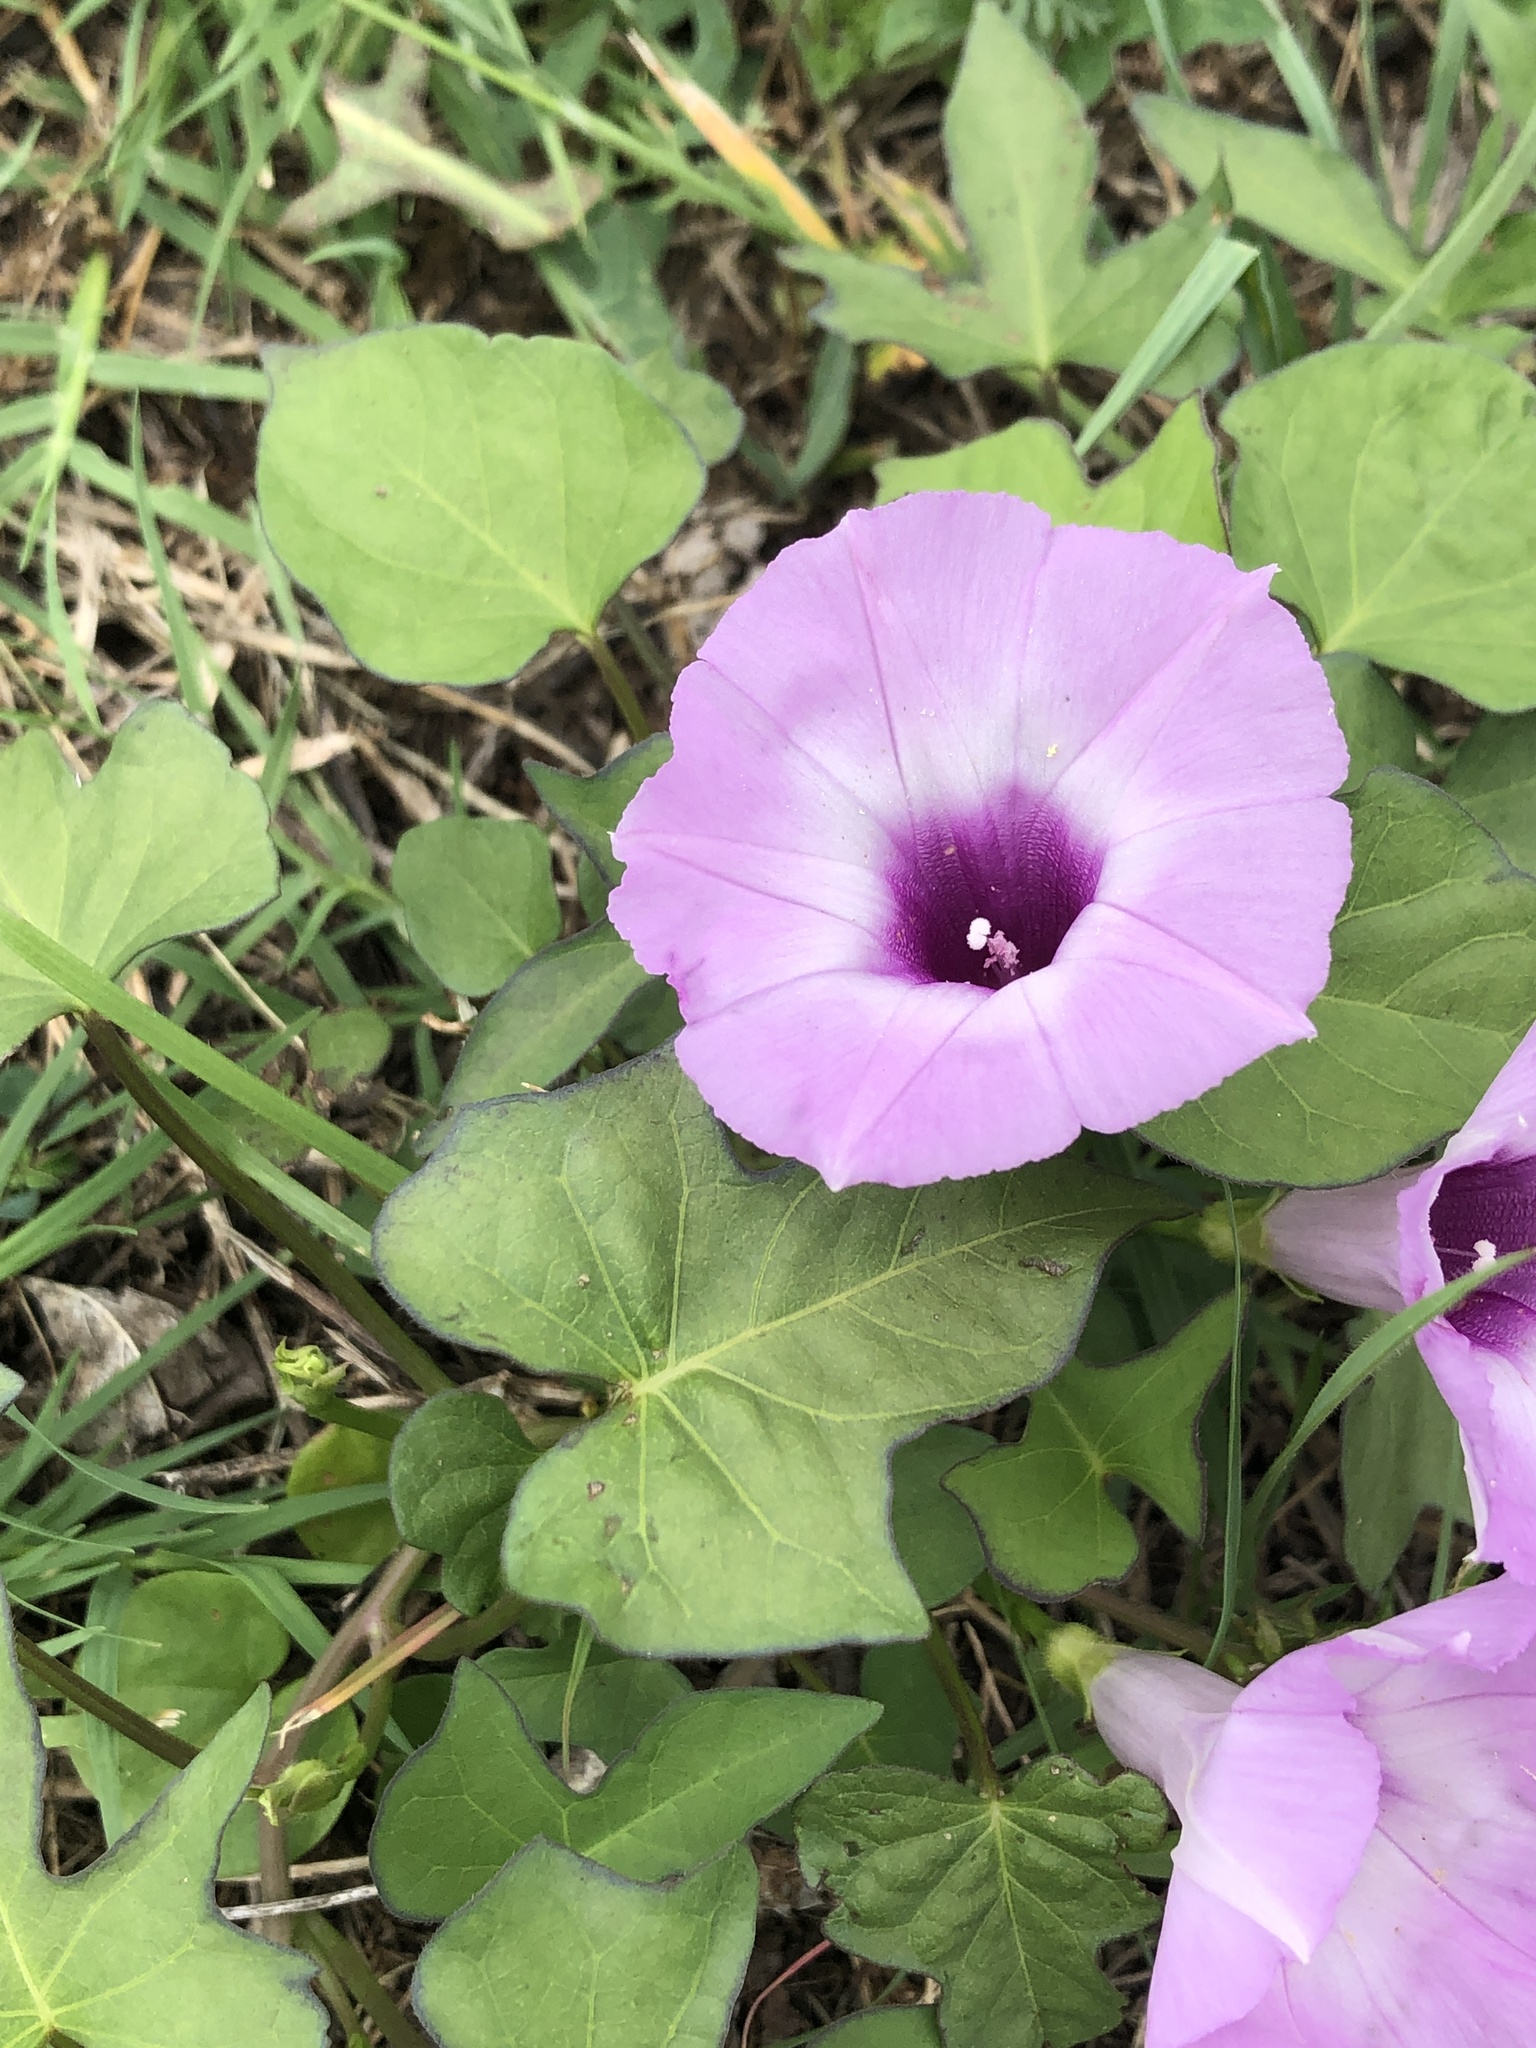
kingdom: Plantae
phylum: Tracheophyta
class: Magnoliopsida
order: Solanales
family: Convolvulaceae
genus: Ipomoea
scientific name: Ipomoea cordatotriloba
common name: Cotton morning glory
